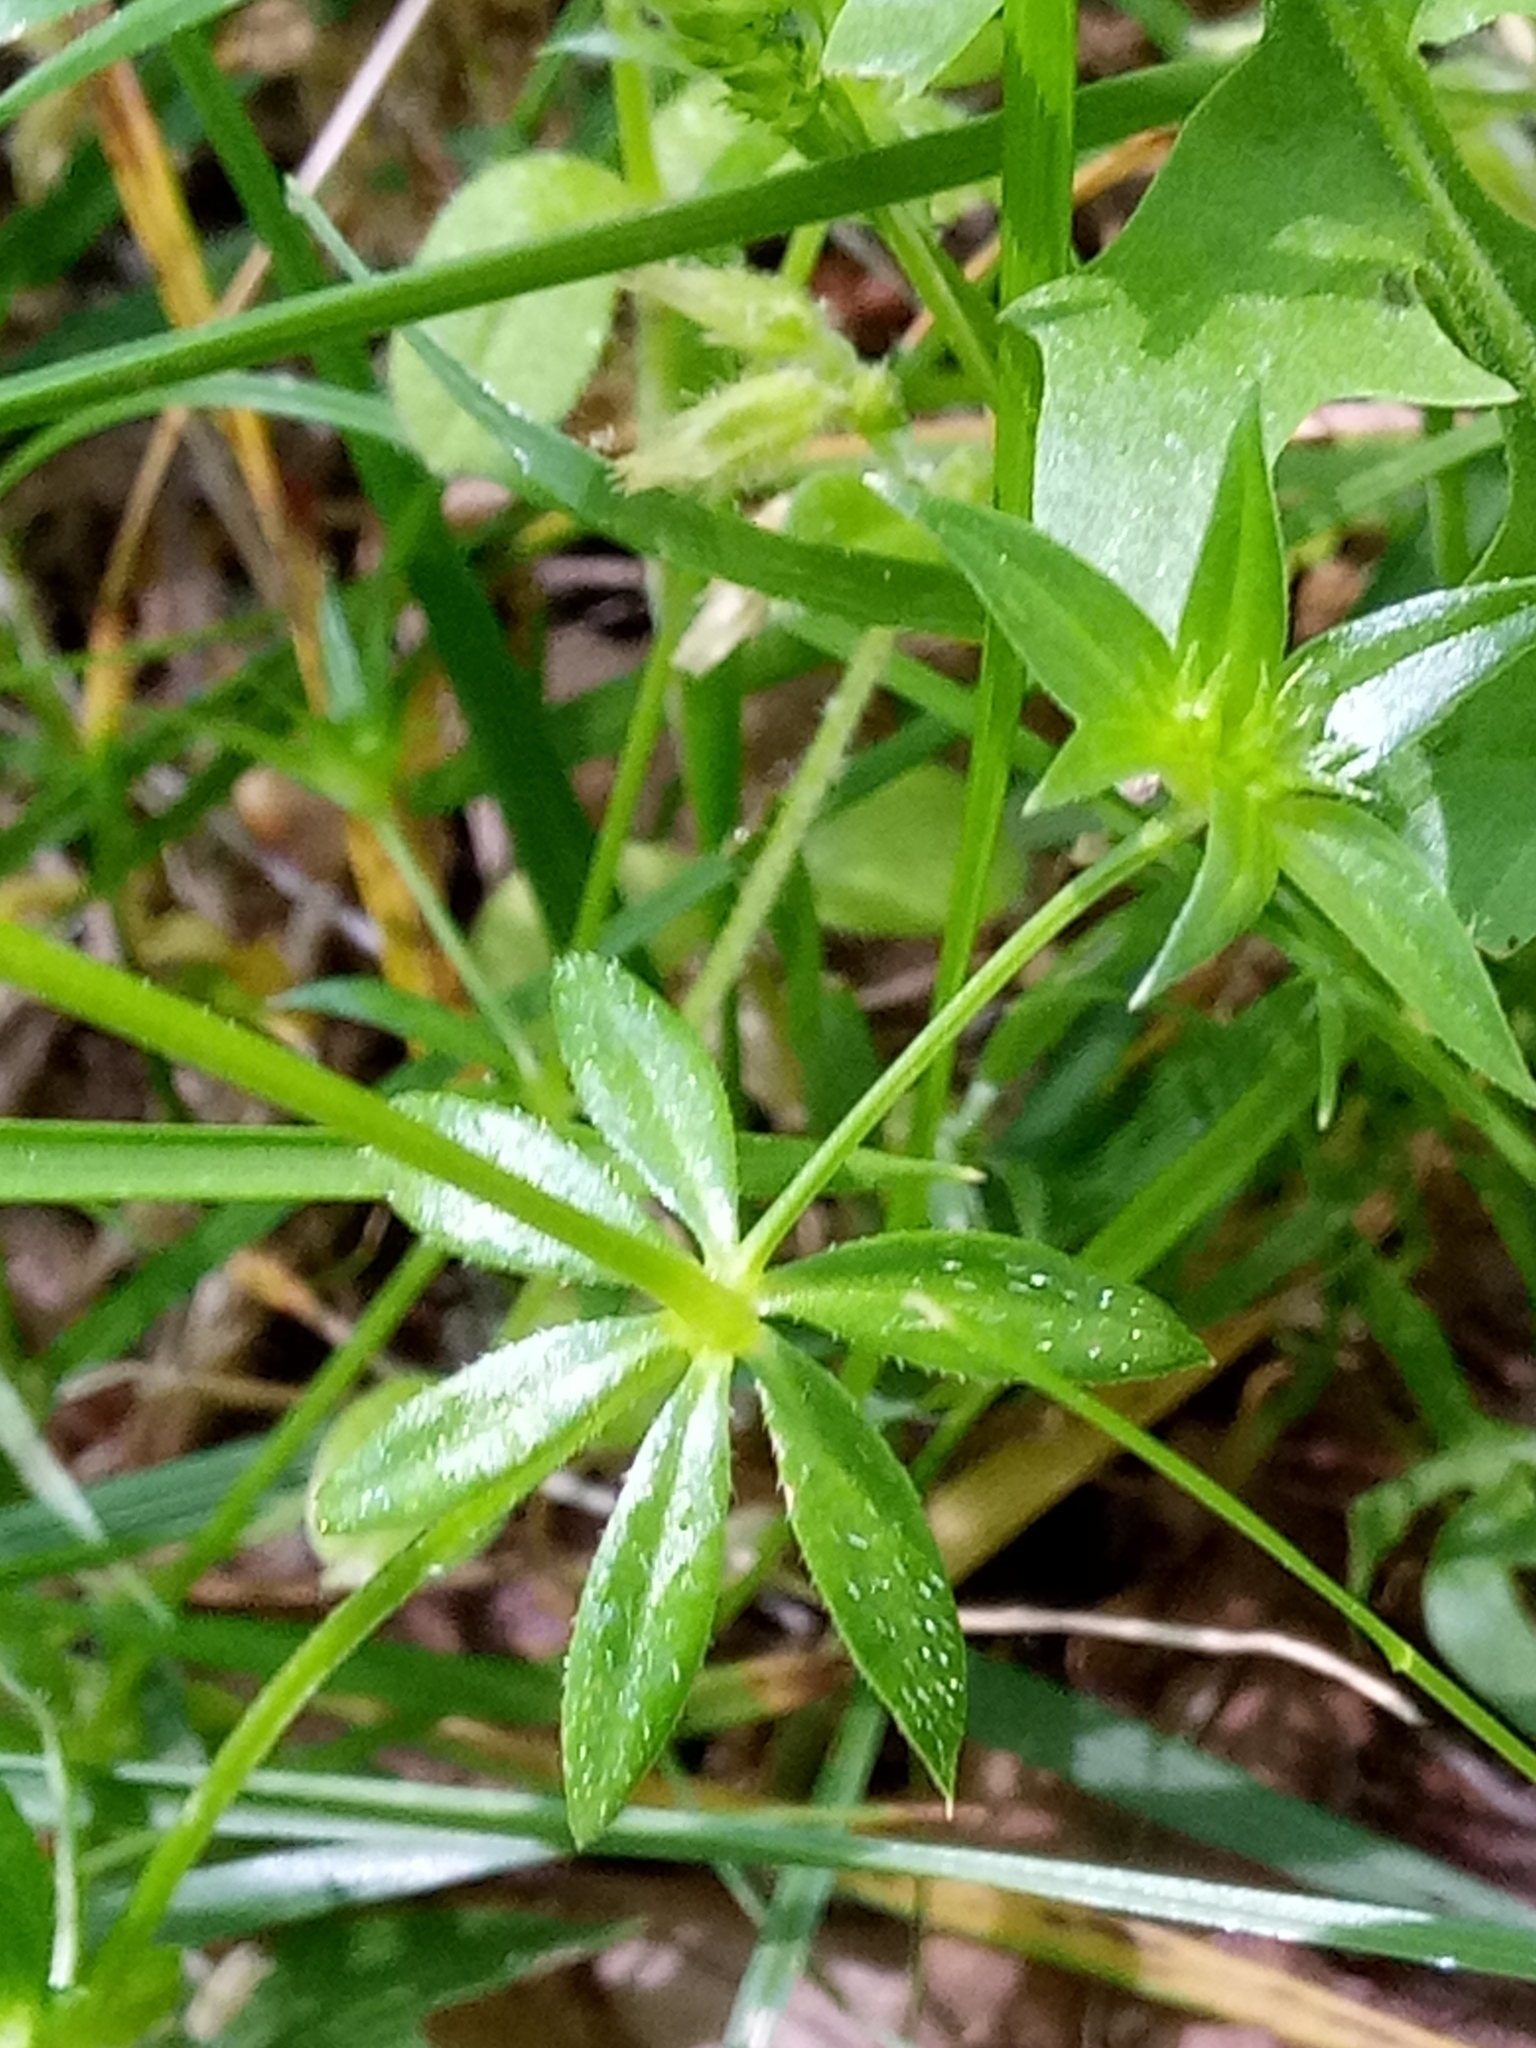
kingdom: Plantae
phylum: Tracheophyta
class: Magnoliopsida
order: Gentianales
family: Rubiaceae
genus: Sherardia
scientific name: Sherardia arvensis
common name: Field madder
